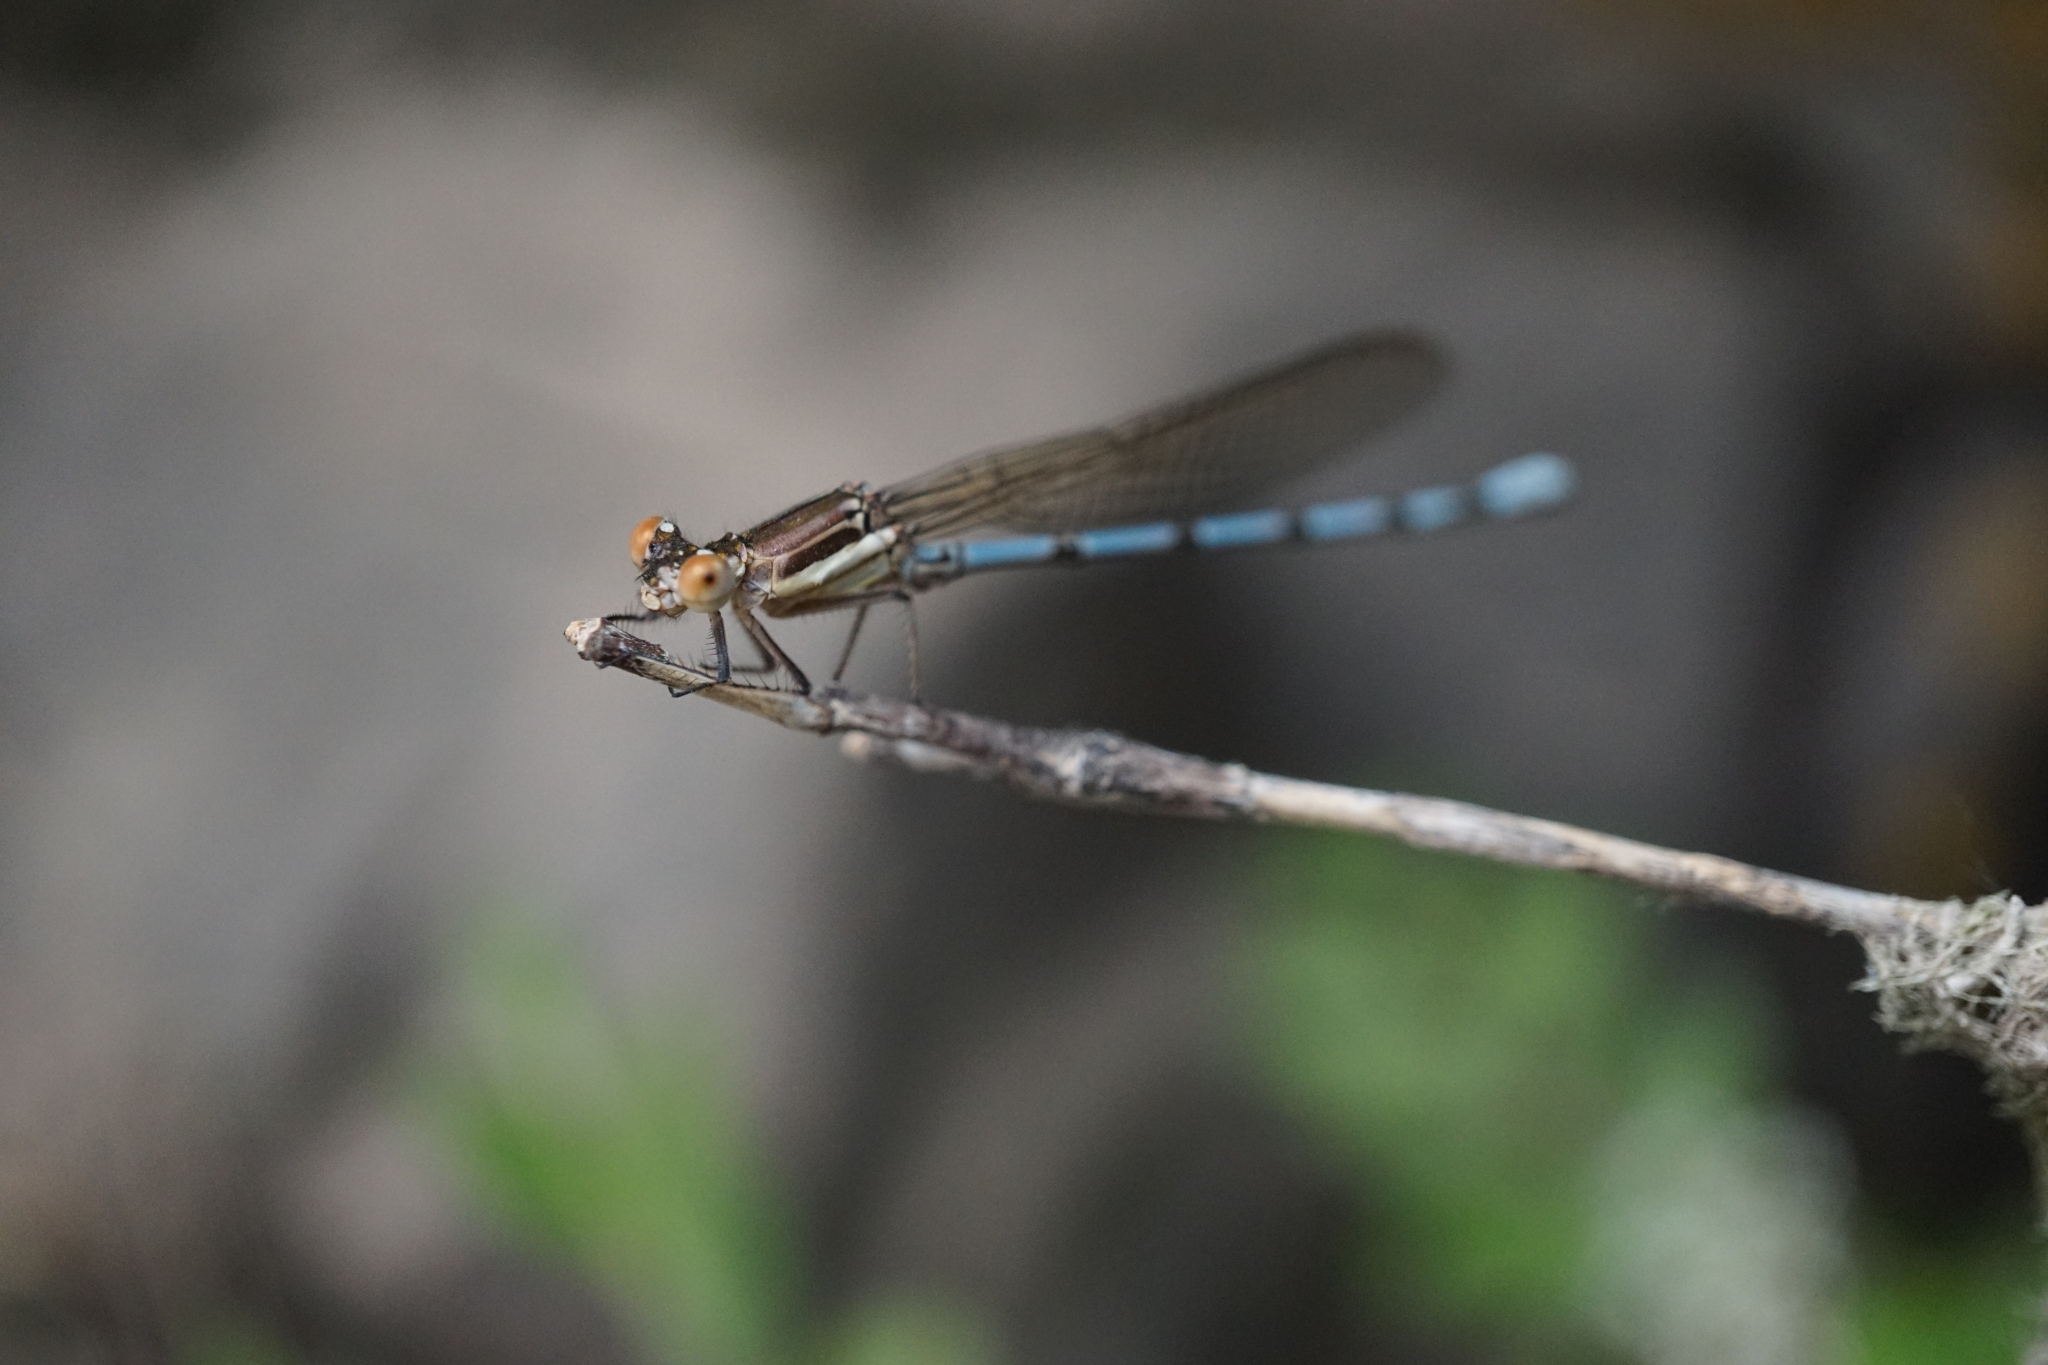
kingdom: Animalia
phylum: Arthropoda
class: Insecta
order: Odonata
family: Coenagrionidae
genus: Argia
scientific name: Argia joergenseni
